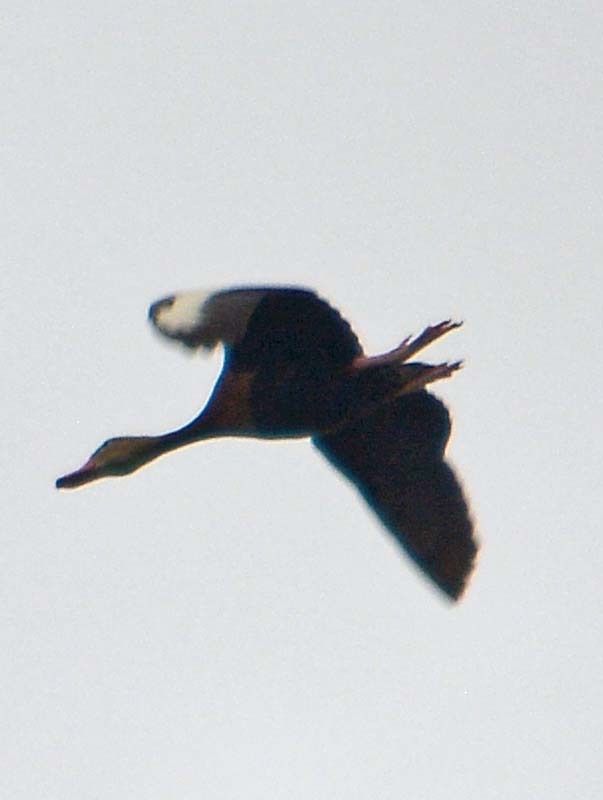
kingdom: Animalia
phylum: Chordata
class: Aves
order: Anseriformes
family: Anatidae
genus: Dendrocygna
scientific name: Dendrocygna autumnalis
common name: Black-bellied whistling duck
